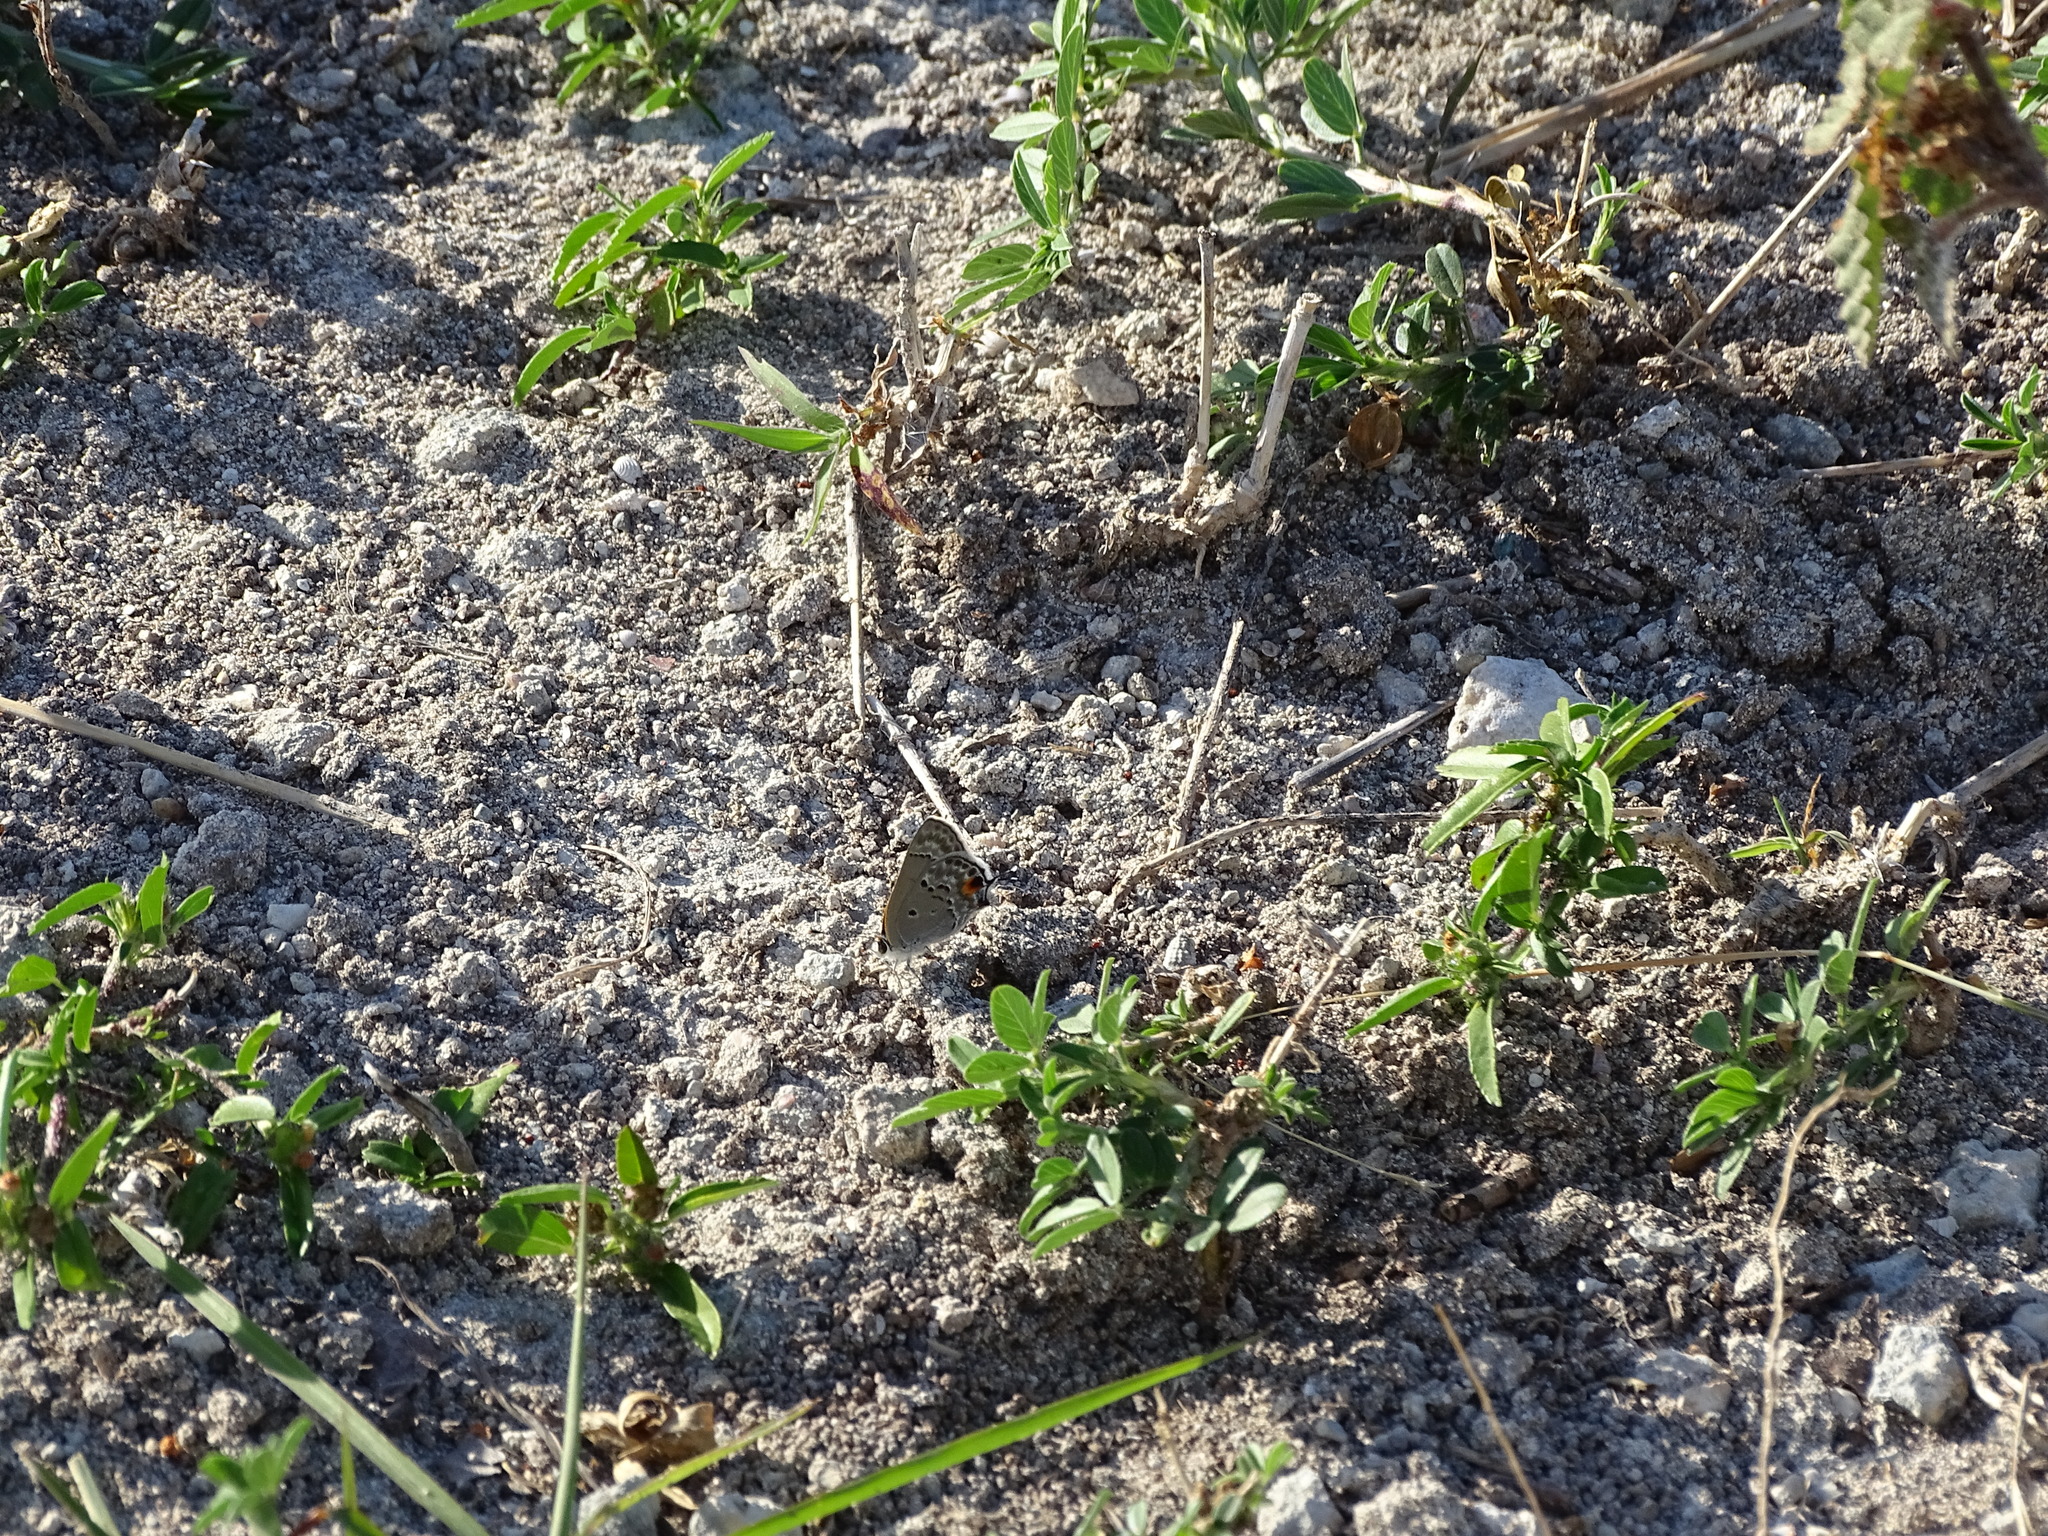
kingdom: Animalia
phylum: Arthropoda
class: Insecta
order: Lepidoptera
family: Lycaenidae
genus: Callicista
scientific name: Callicista columella
